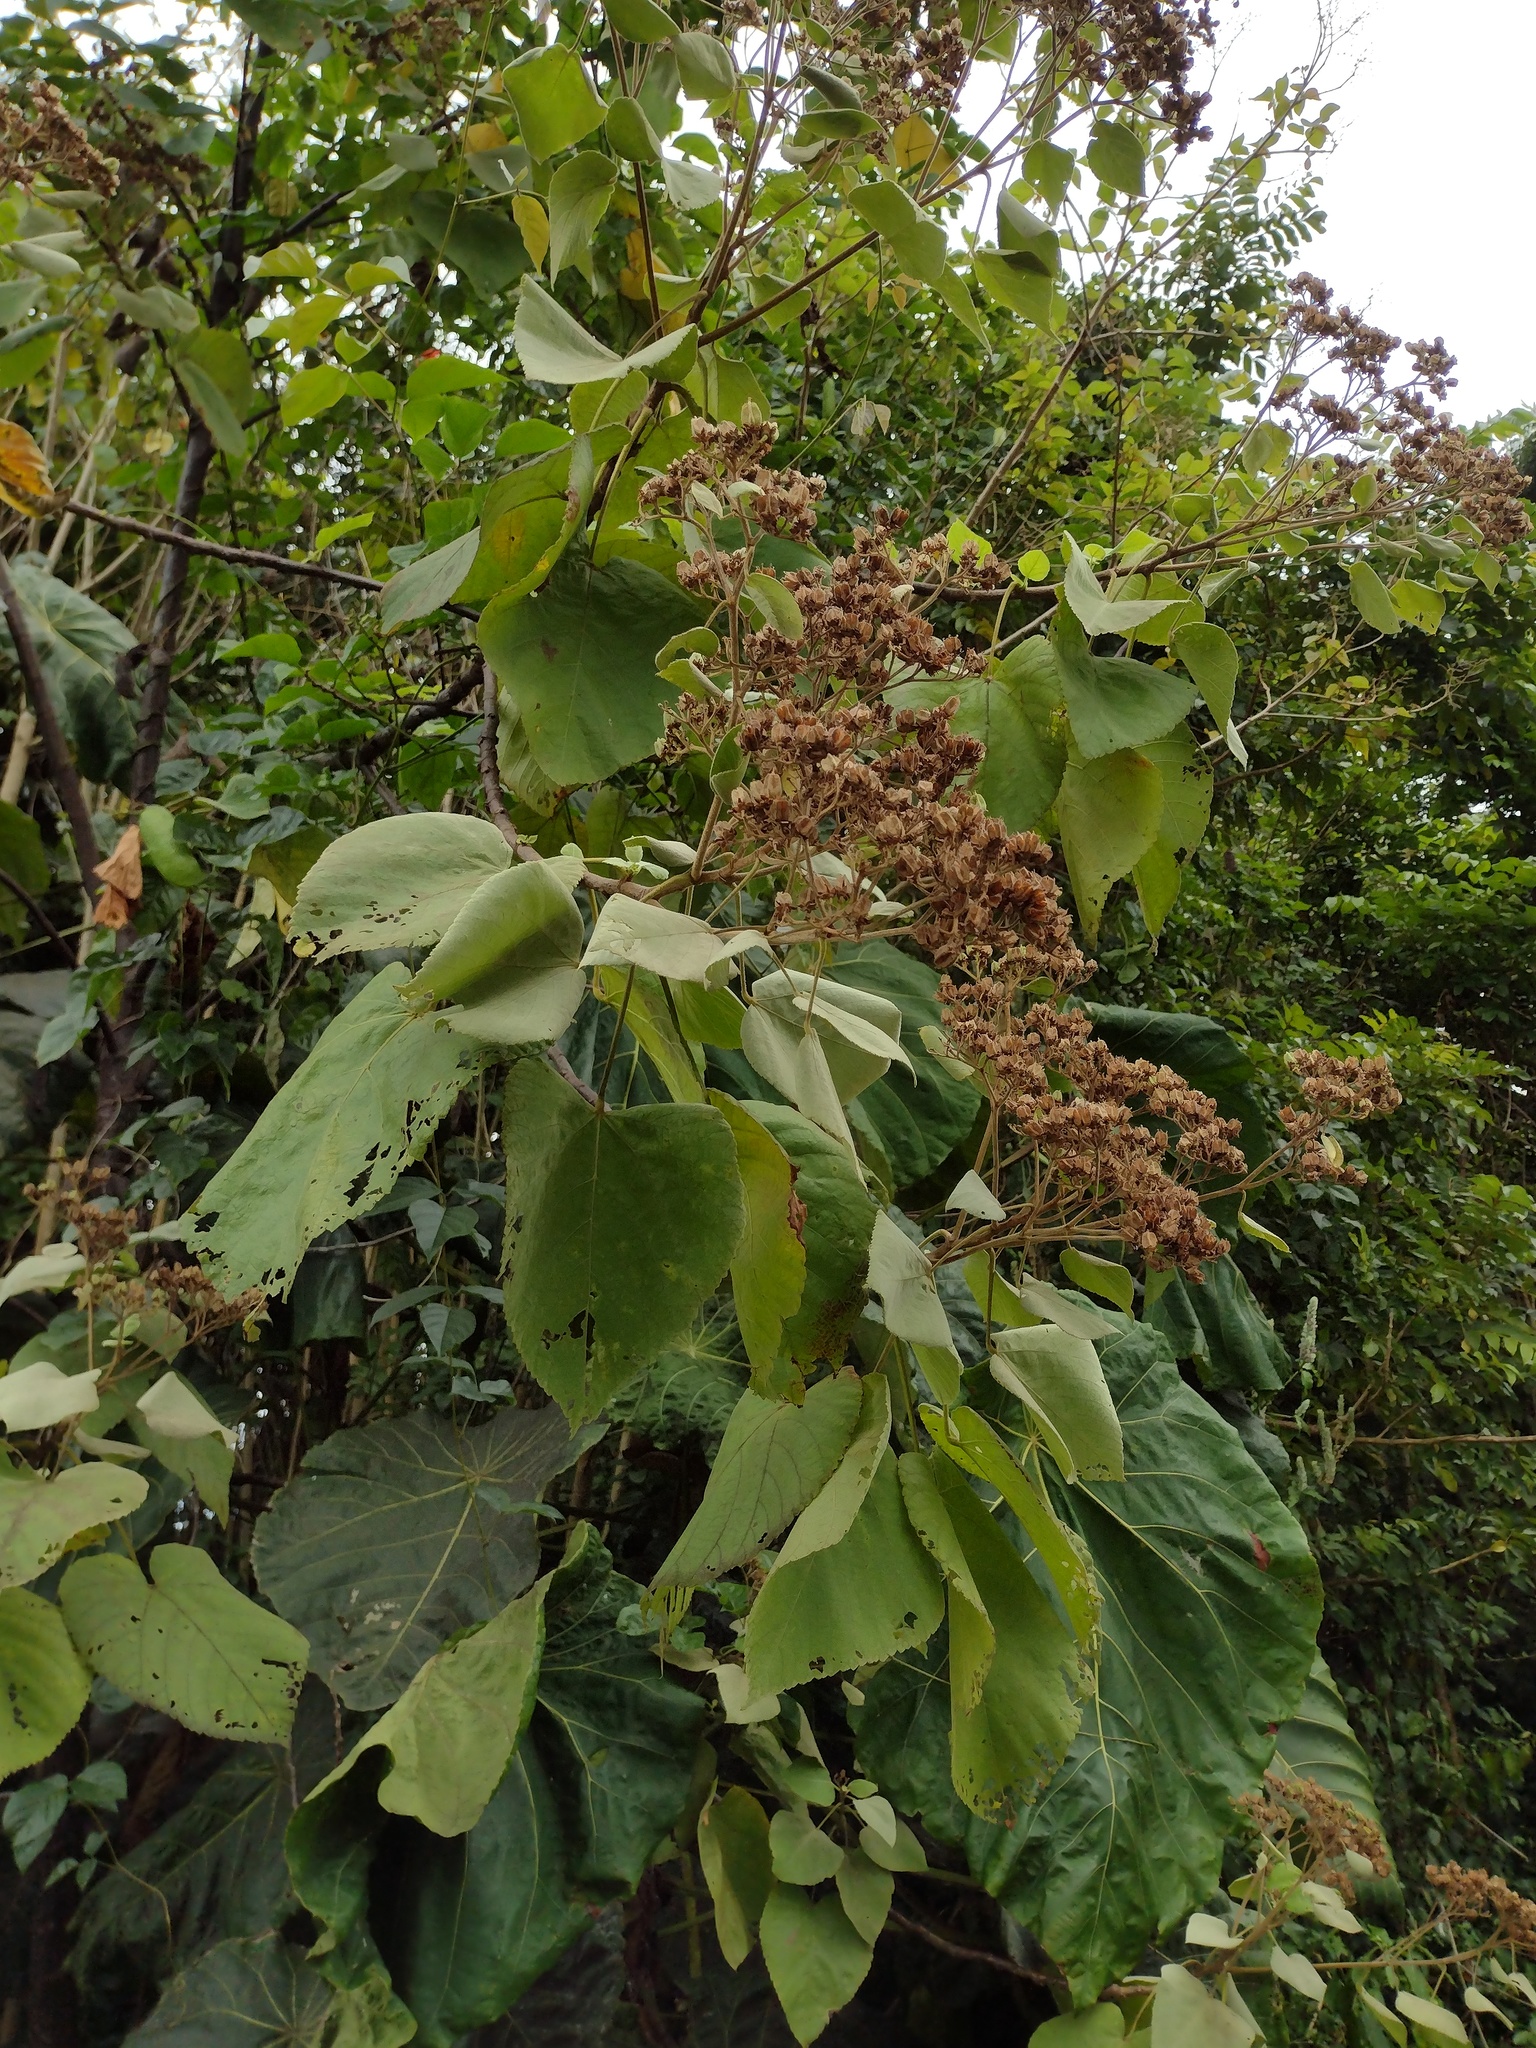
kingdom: Plantae
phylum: Tracheophyta
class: Magnoliopsida
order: Malvales
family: Malvaceae
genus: Melochia
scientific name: Melochia umbellata
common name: Gunpowder tree
